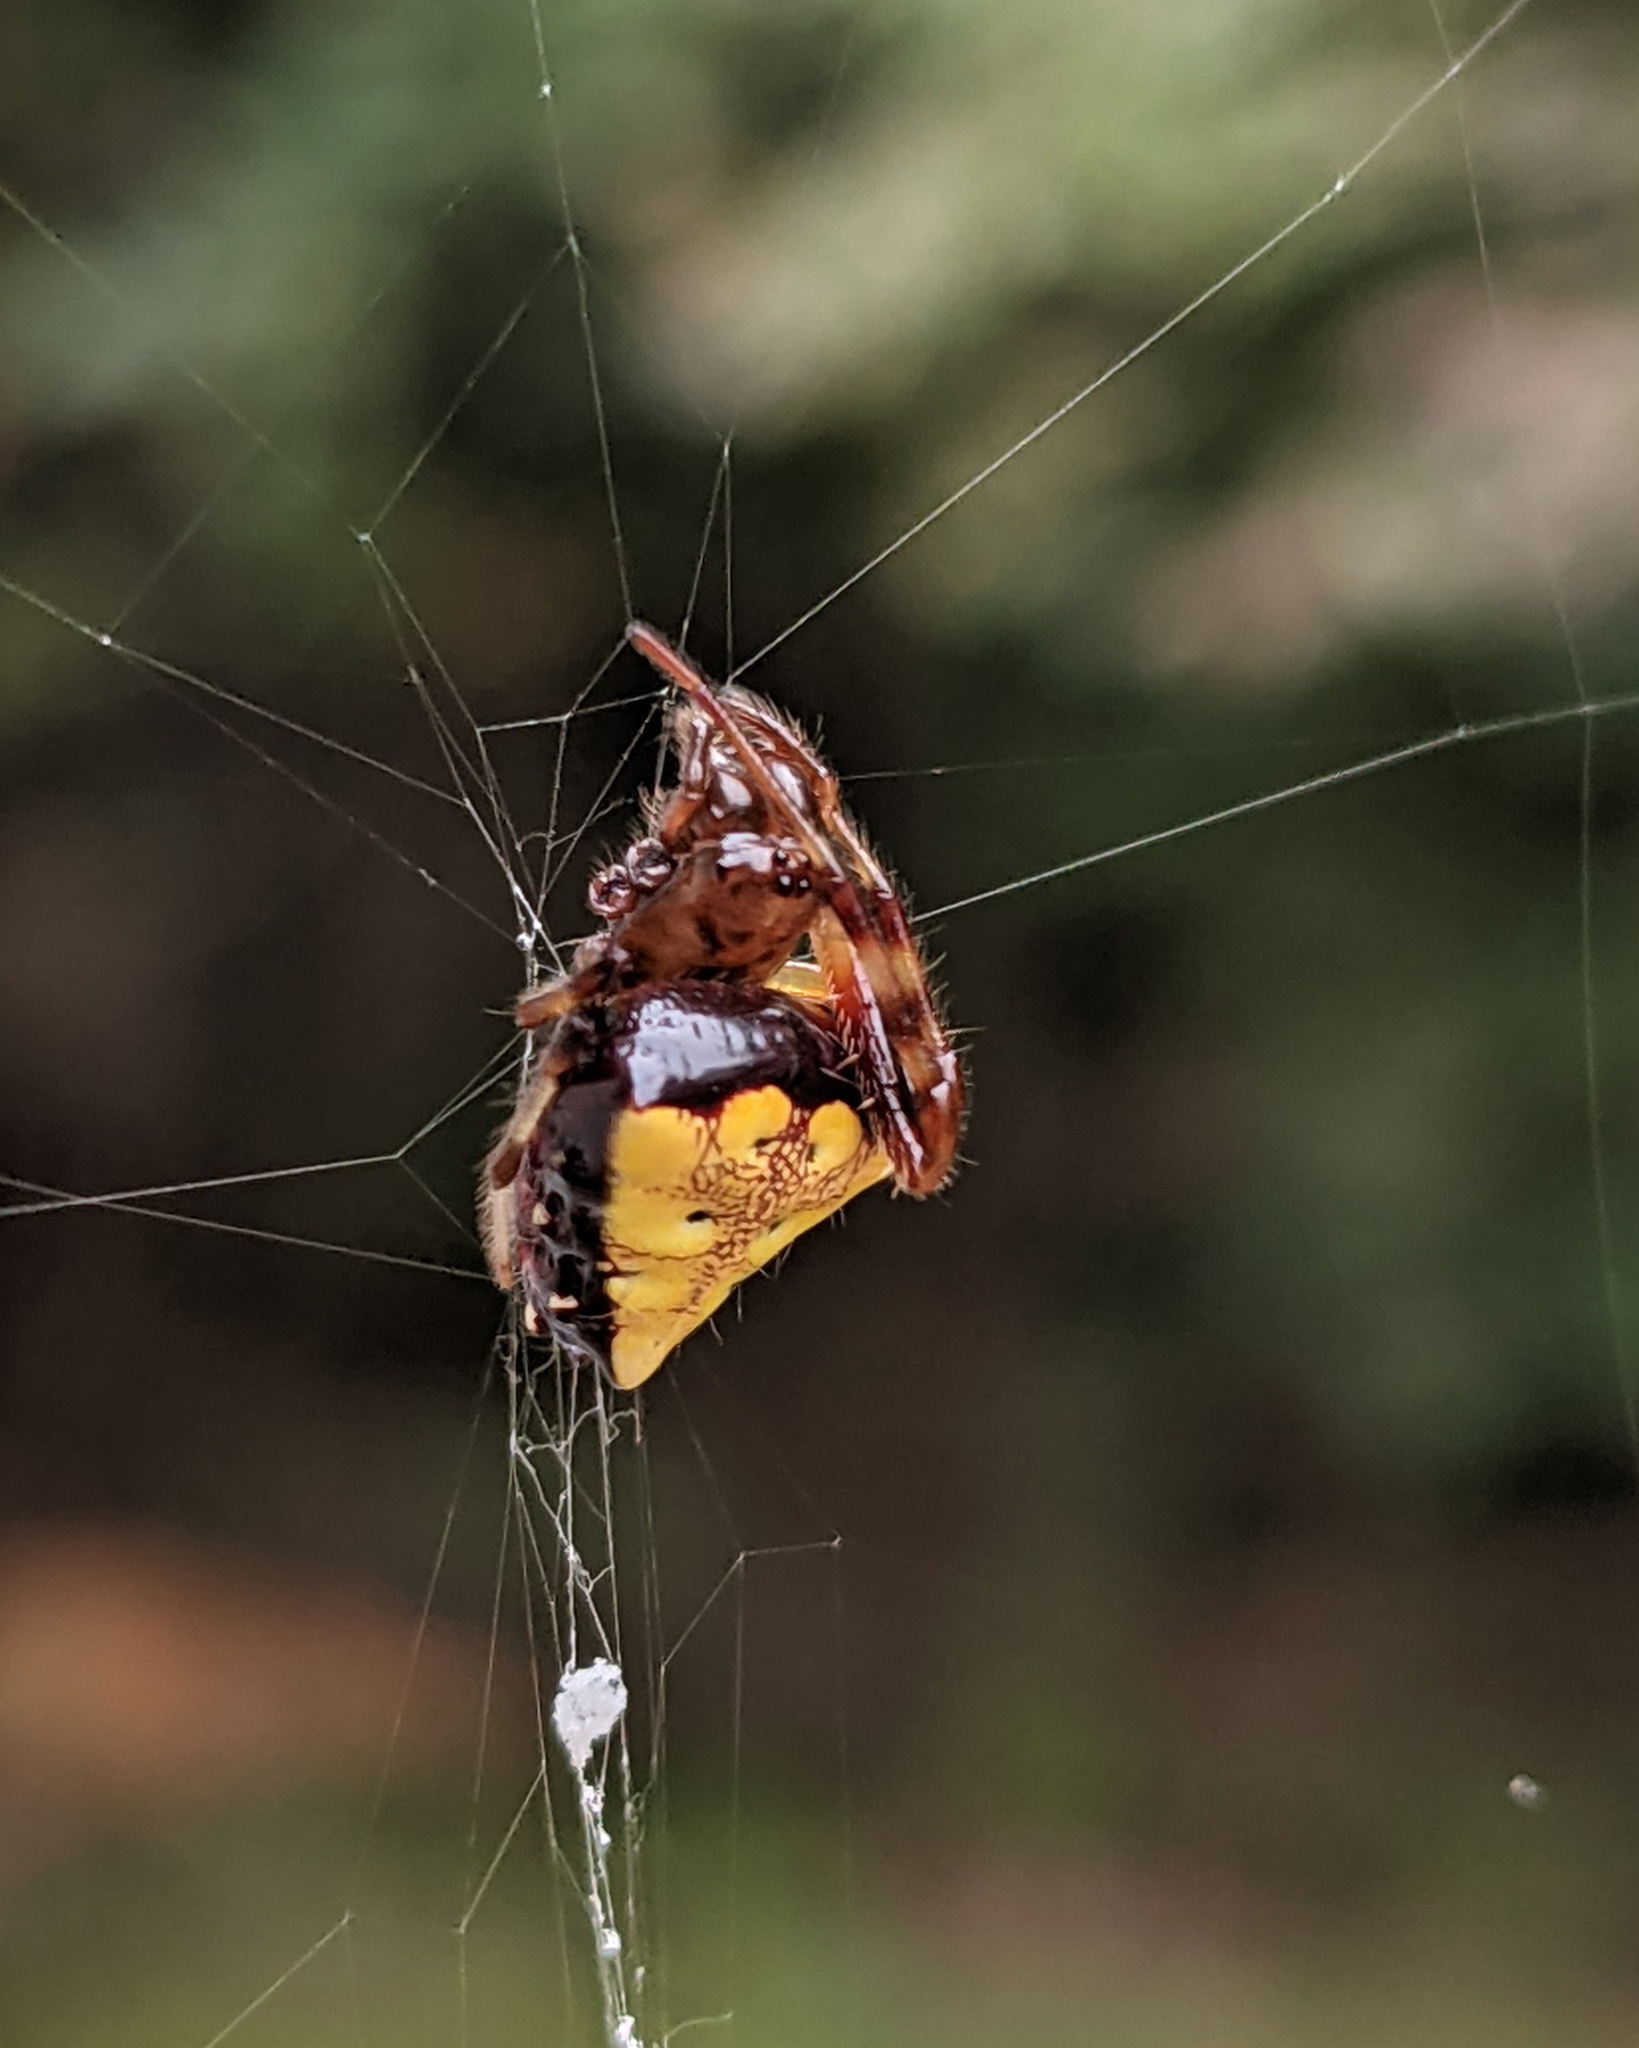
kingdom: Animalia
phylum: Arthropoda
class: Arachnida
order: Araneae
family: Araneidae
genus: Verrucosa
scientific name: Verrucosa arenata
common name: Orb weavers
